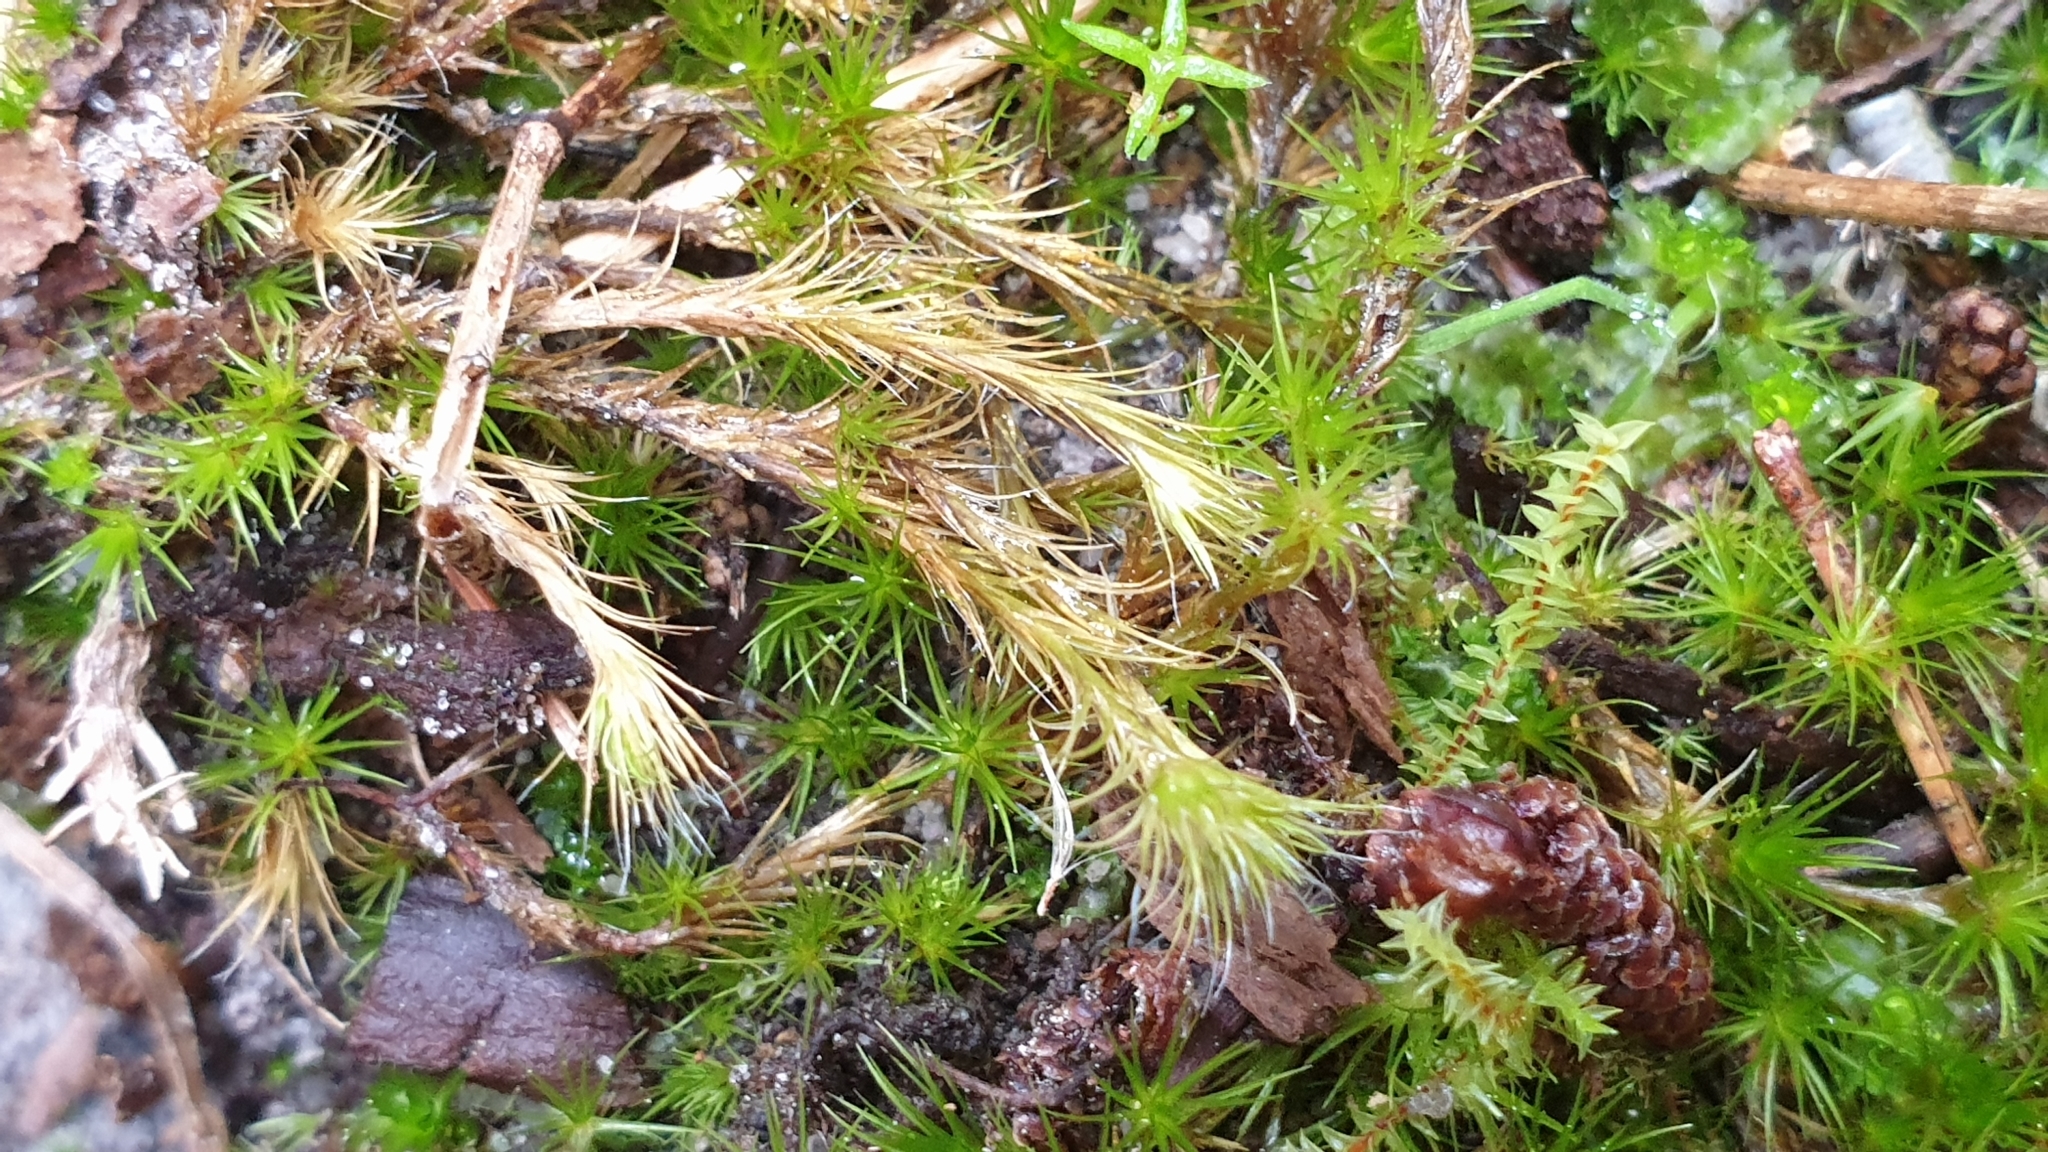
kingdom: Plantae
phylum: Bryophyta
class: Bryopsida
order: Dicranales
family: Leucobryaceae
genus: Campylopus
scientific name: Campylopus introflexus
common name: Heath star moss
